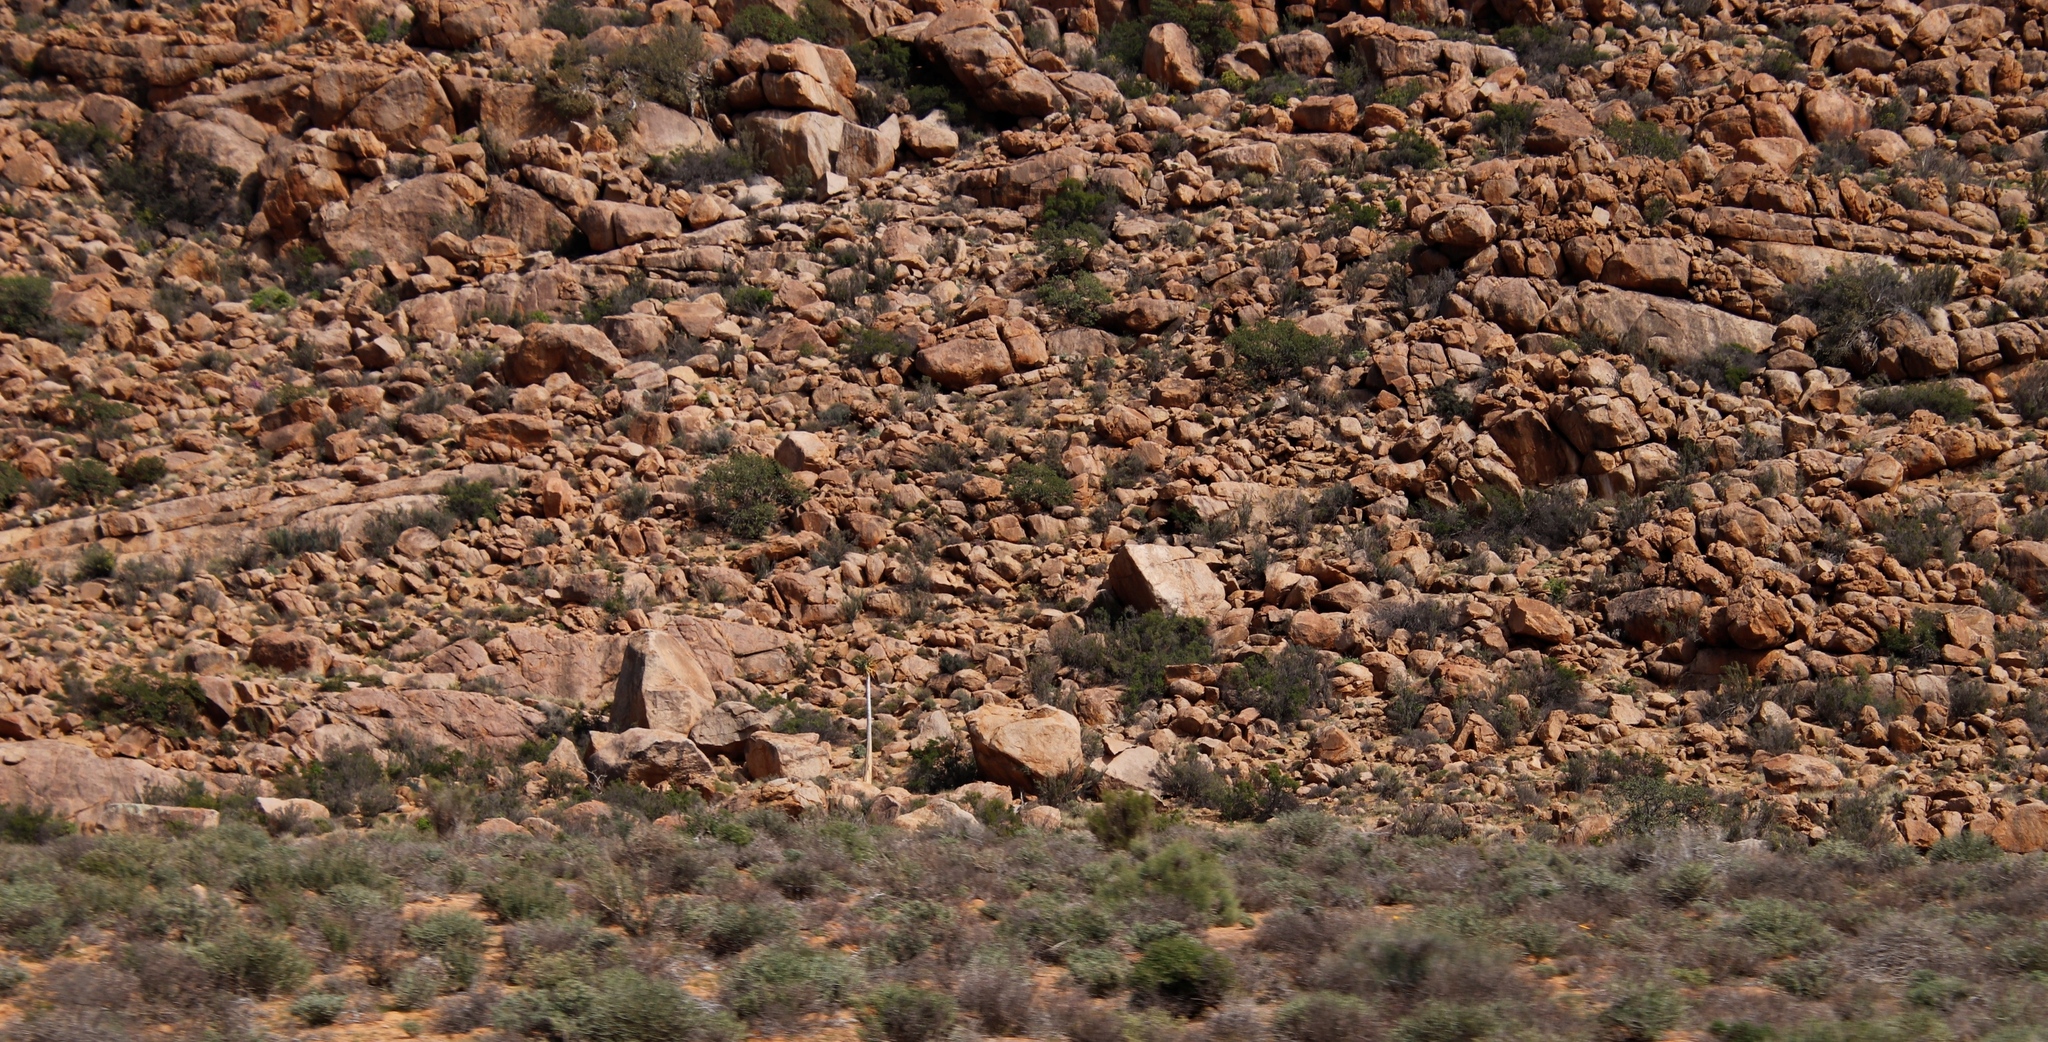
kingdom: Plantae
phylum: Tracheophyta
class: Liliopsida
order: Asparagales
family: Asphodelaceae
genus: Aloidendron
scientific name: Aloidendron dichotomum
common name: Quiver tree
